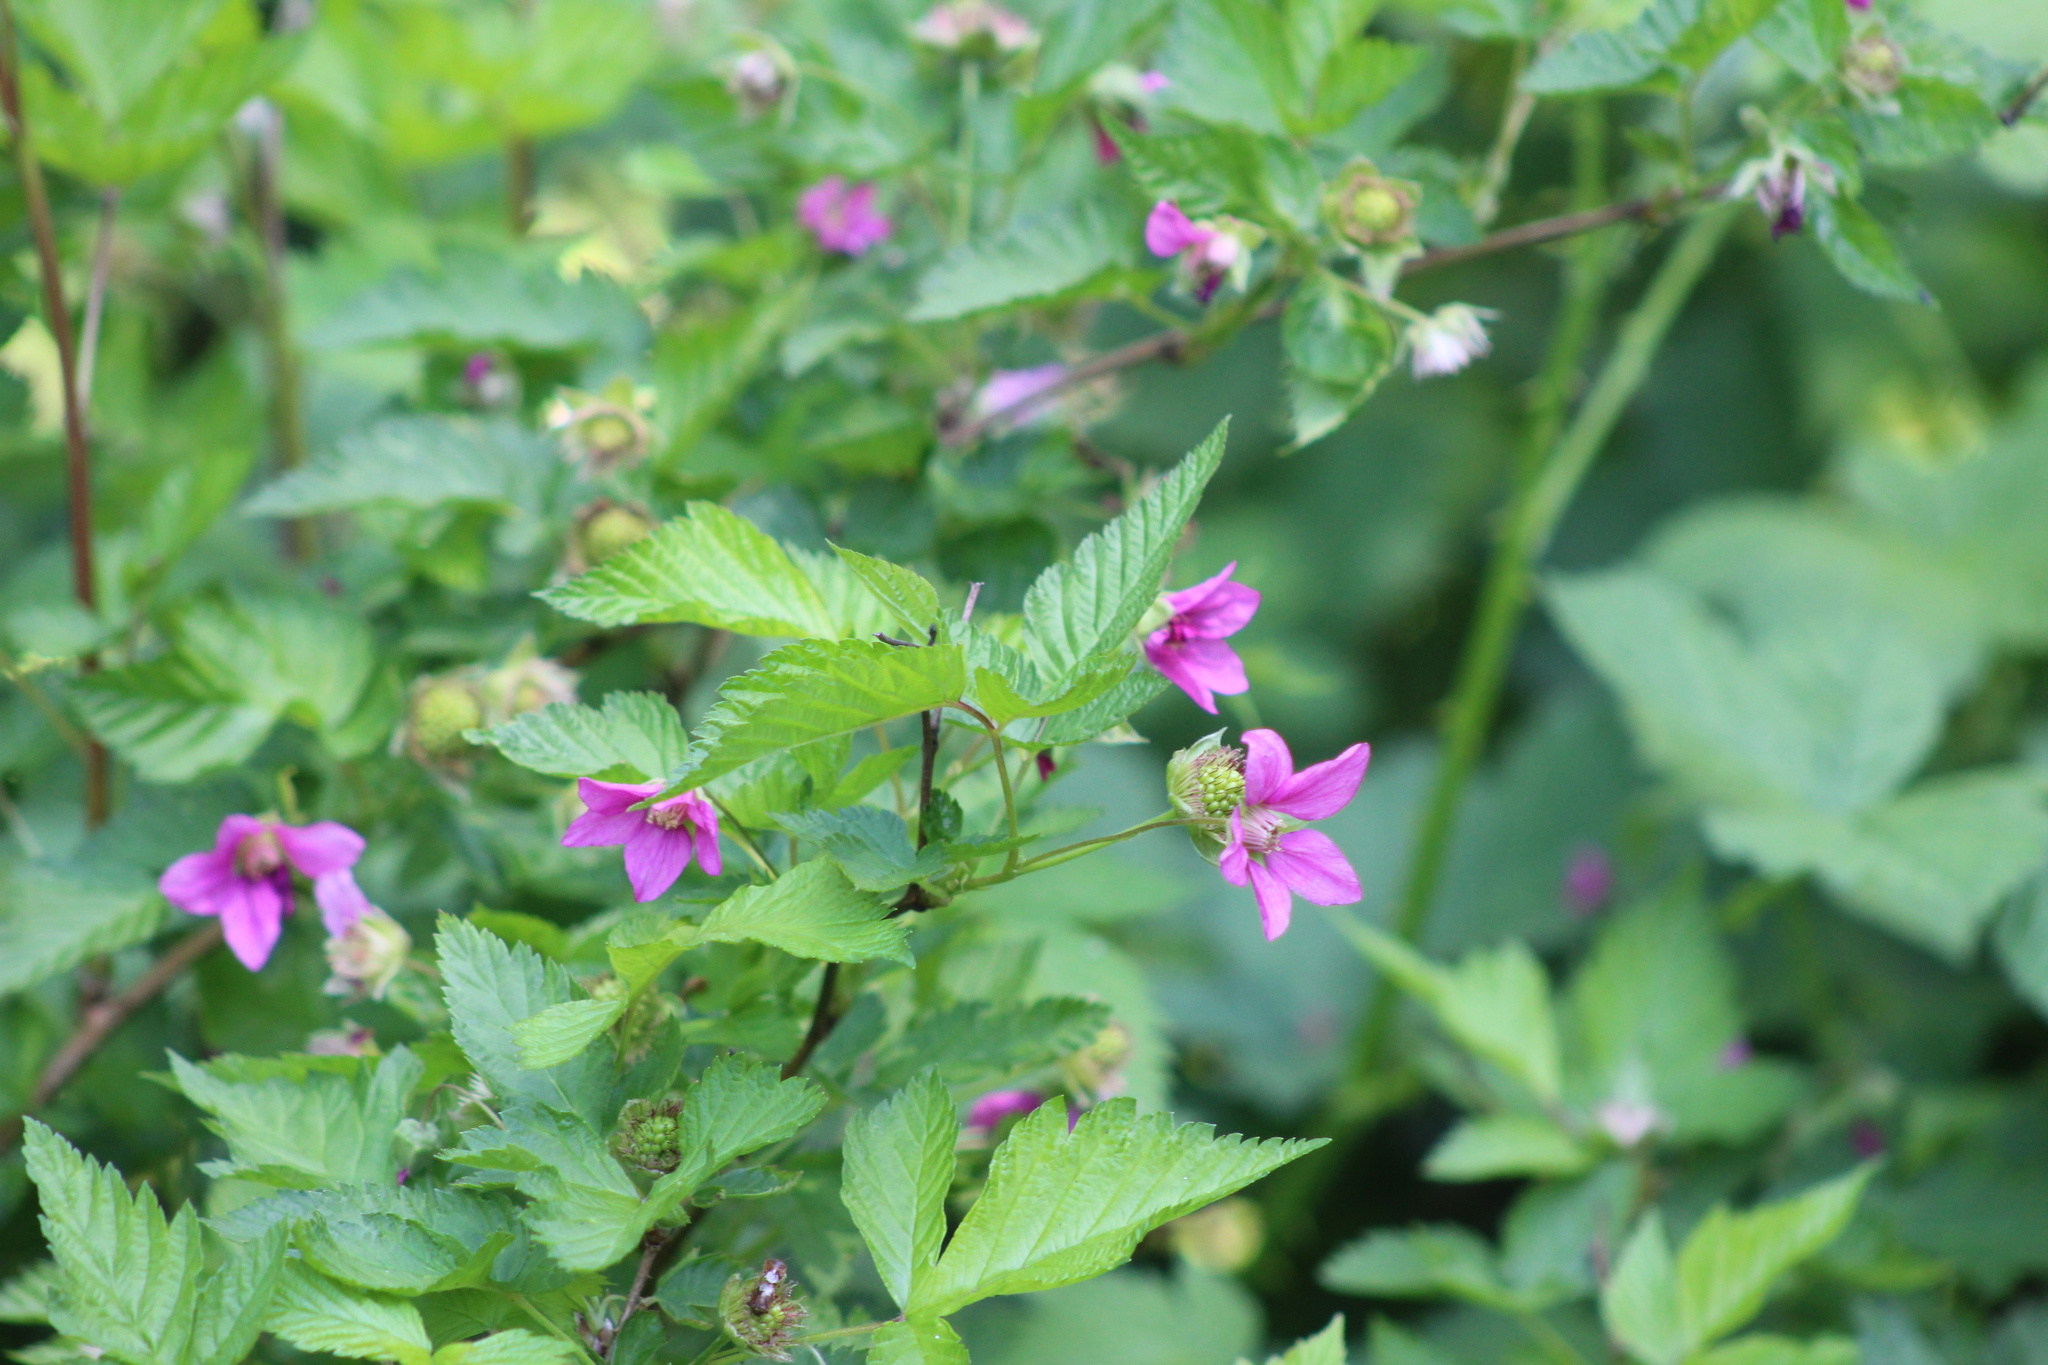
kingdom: Plantae
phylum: Tracheophyta
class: Magnoliopsida
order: Rosales
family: Rosaceae
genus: Rubus
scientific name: Rubus spectabilis
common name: Salmonberry
